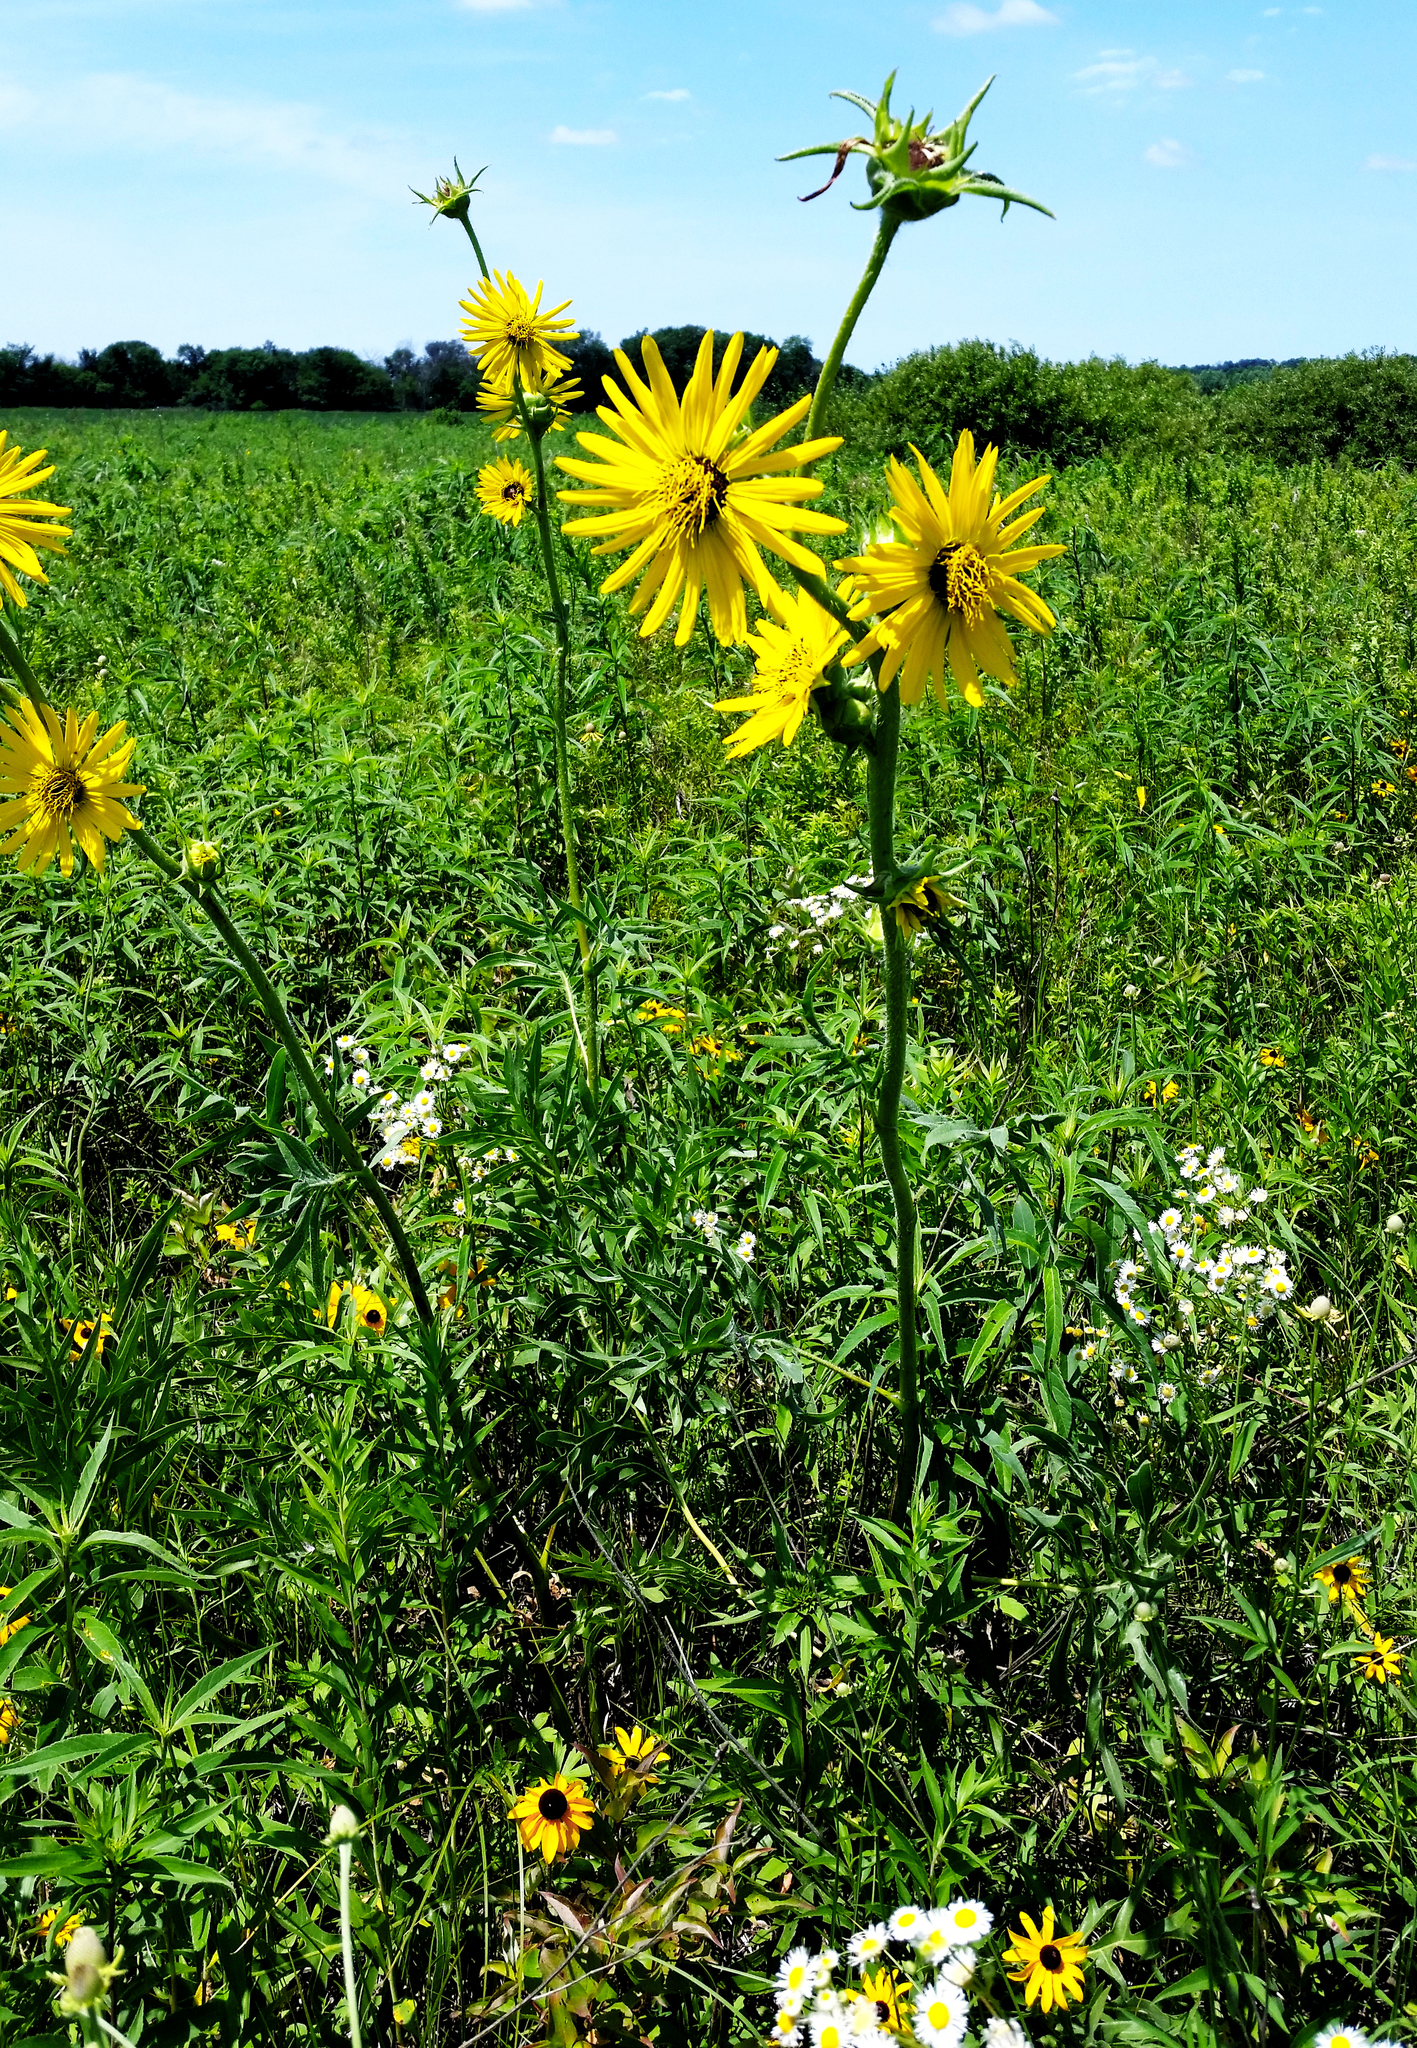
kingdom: Plantae
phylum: Tracheophyta
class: Magnoliopsida
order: Asterales
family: Asteraceae
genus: Silphium
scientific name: Silphium laciniatum
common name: Polarplant
